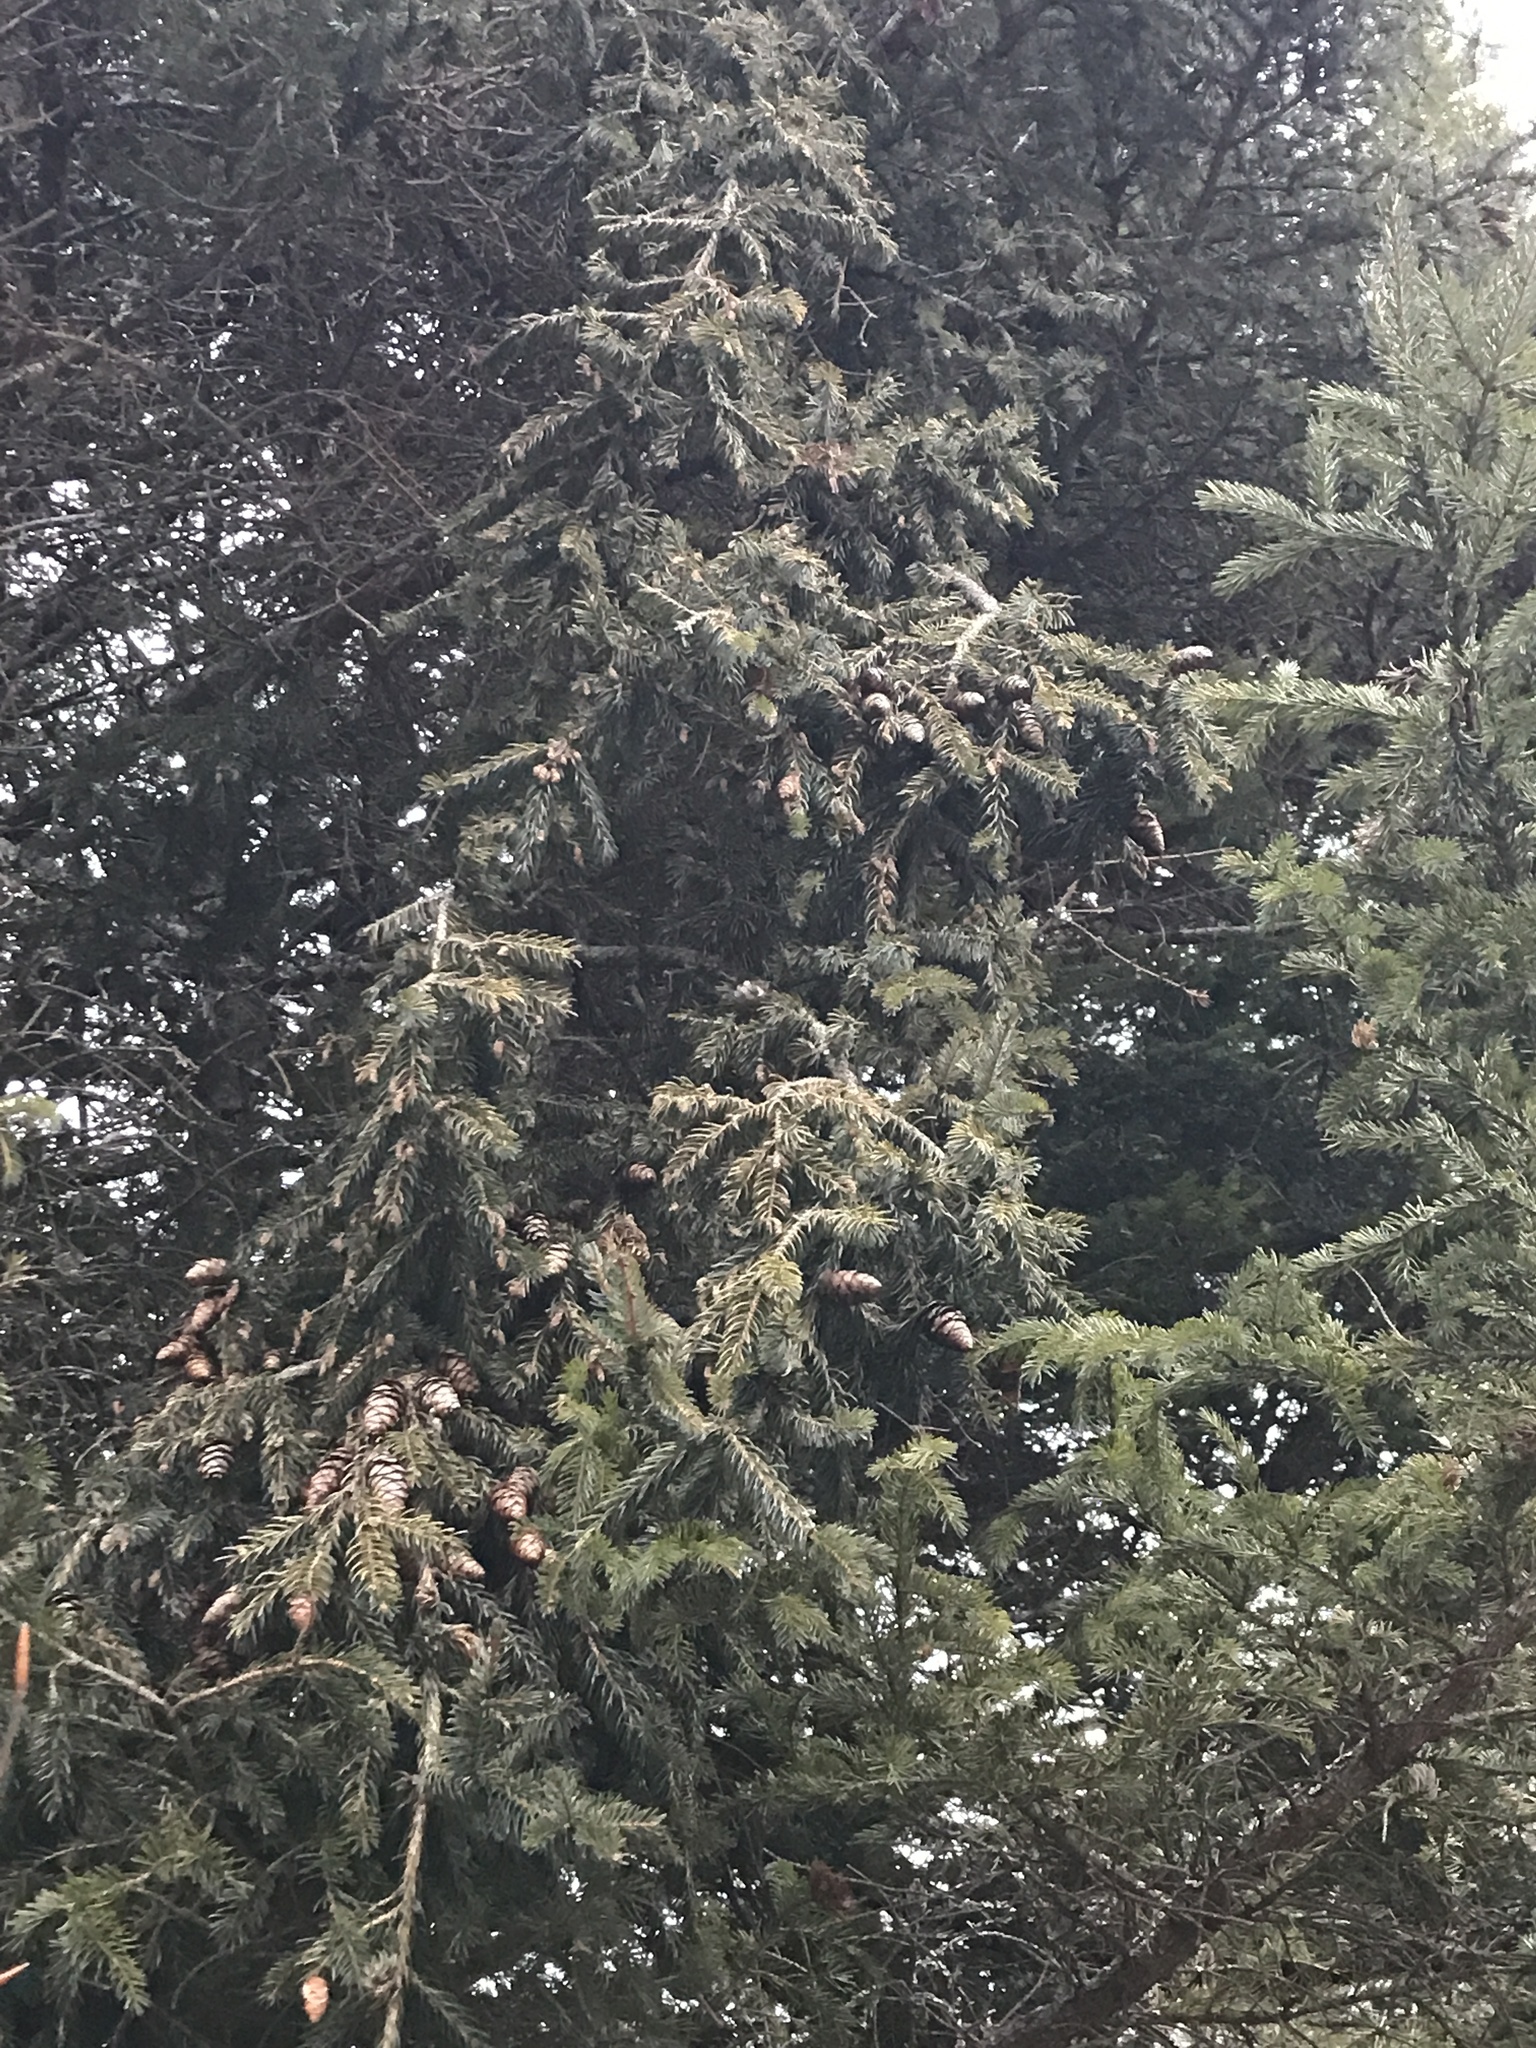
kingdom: Plantae
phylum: Tracheophyta
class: Pinopsida
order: Pinales
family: Pinaceae
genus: Picea
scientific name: Picea rubens
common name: Red spruce
